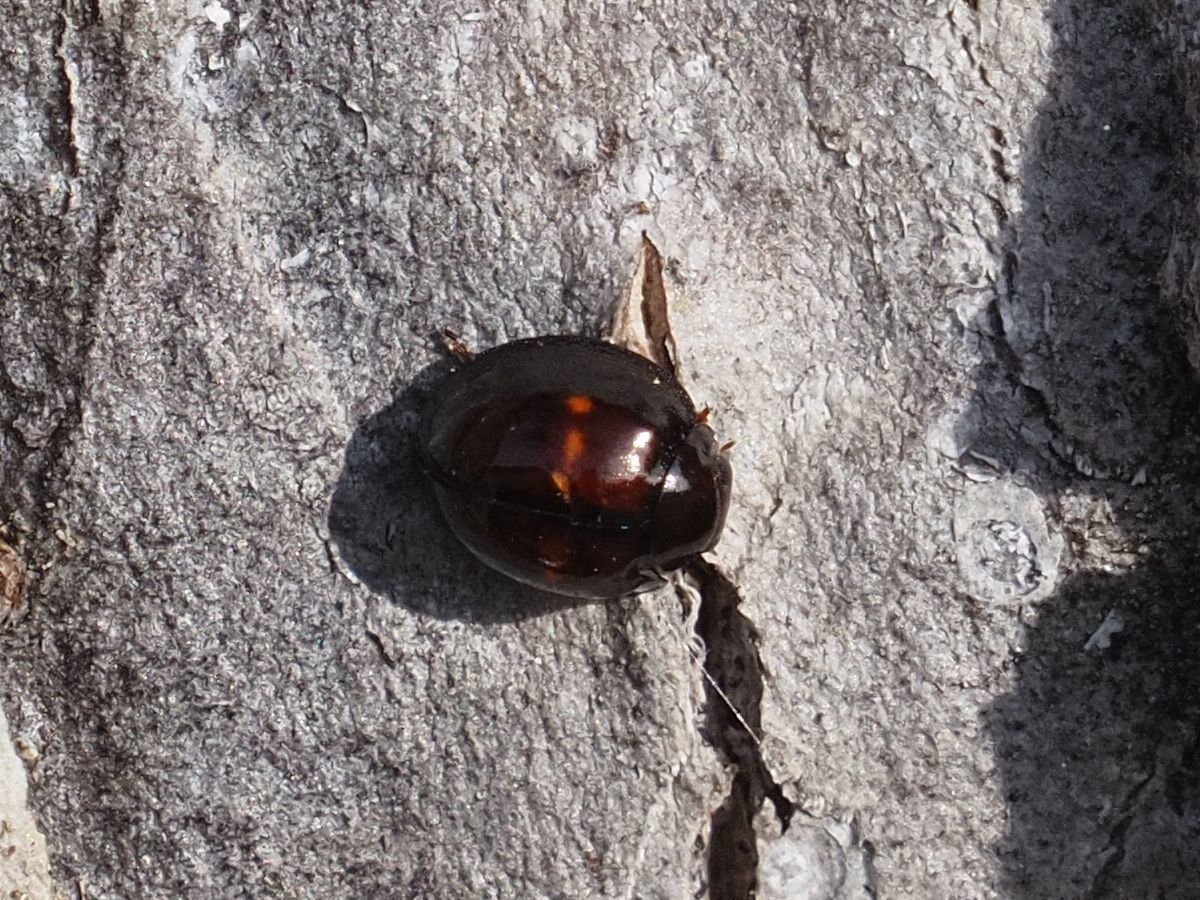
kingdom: Animalia
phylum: Arthropoda
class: Insecta
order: Coleoptera
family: Coccinellidae
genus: Chilocorus
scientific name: Chilocorus bipustulatus
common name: Heather ladybird
